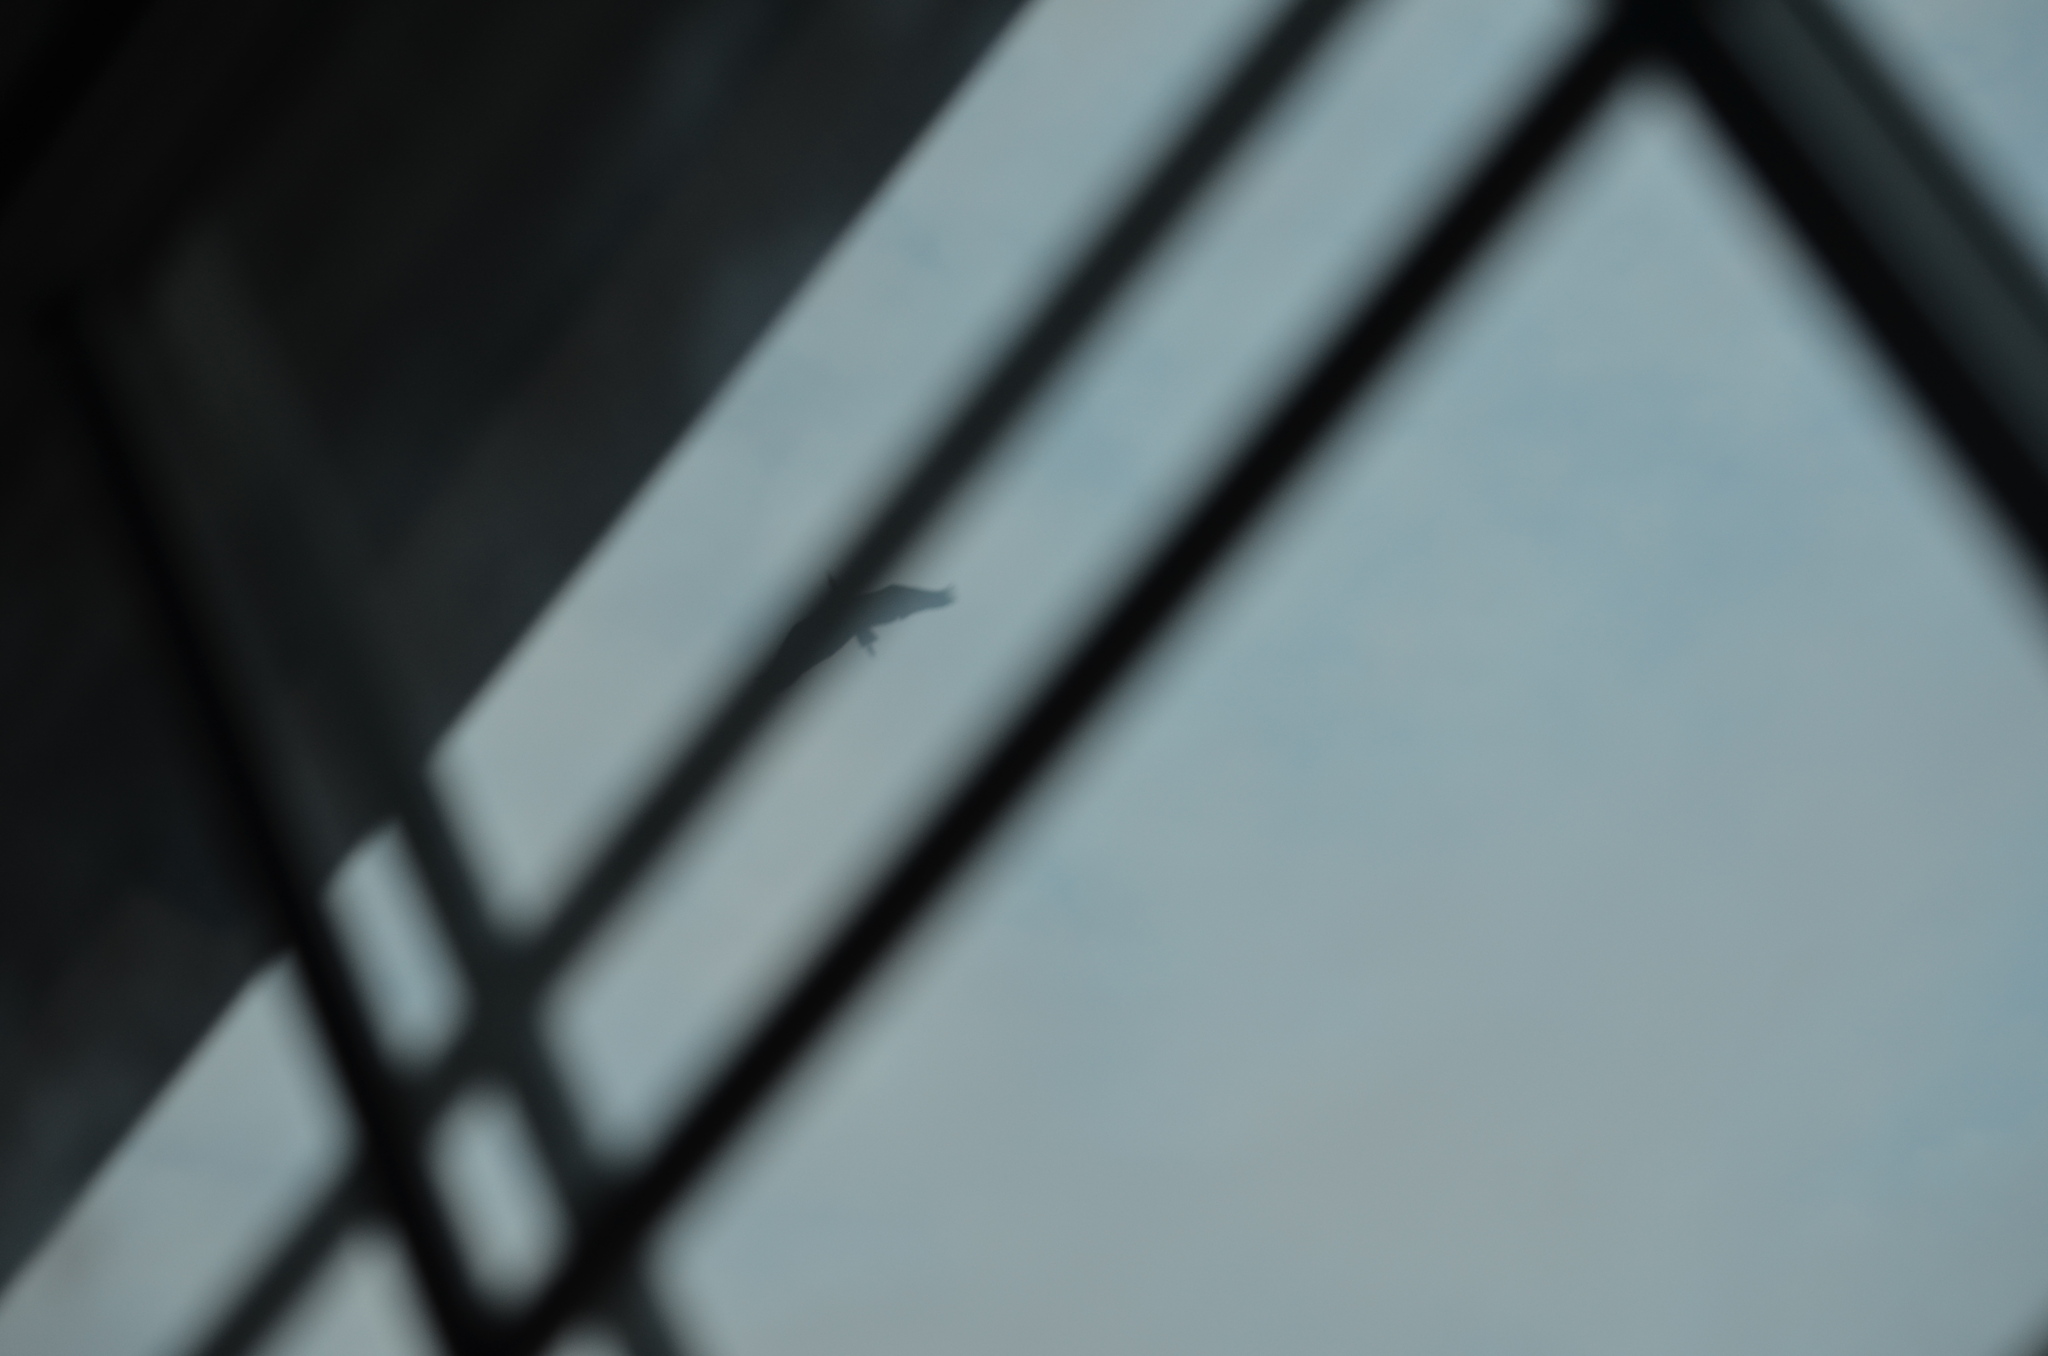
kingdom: Animalia
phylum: Chordata
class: Aves
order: Pelecaniformes
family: Ardeidae
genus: Ardea
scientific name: Ardea herodias
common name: Great blue heron
